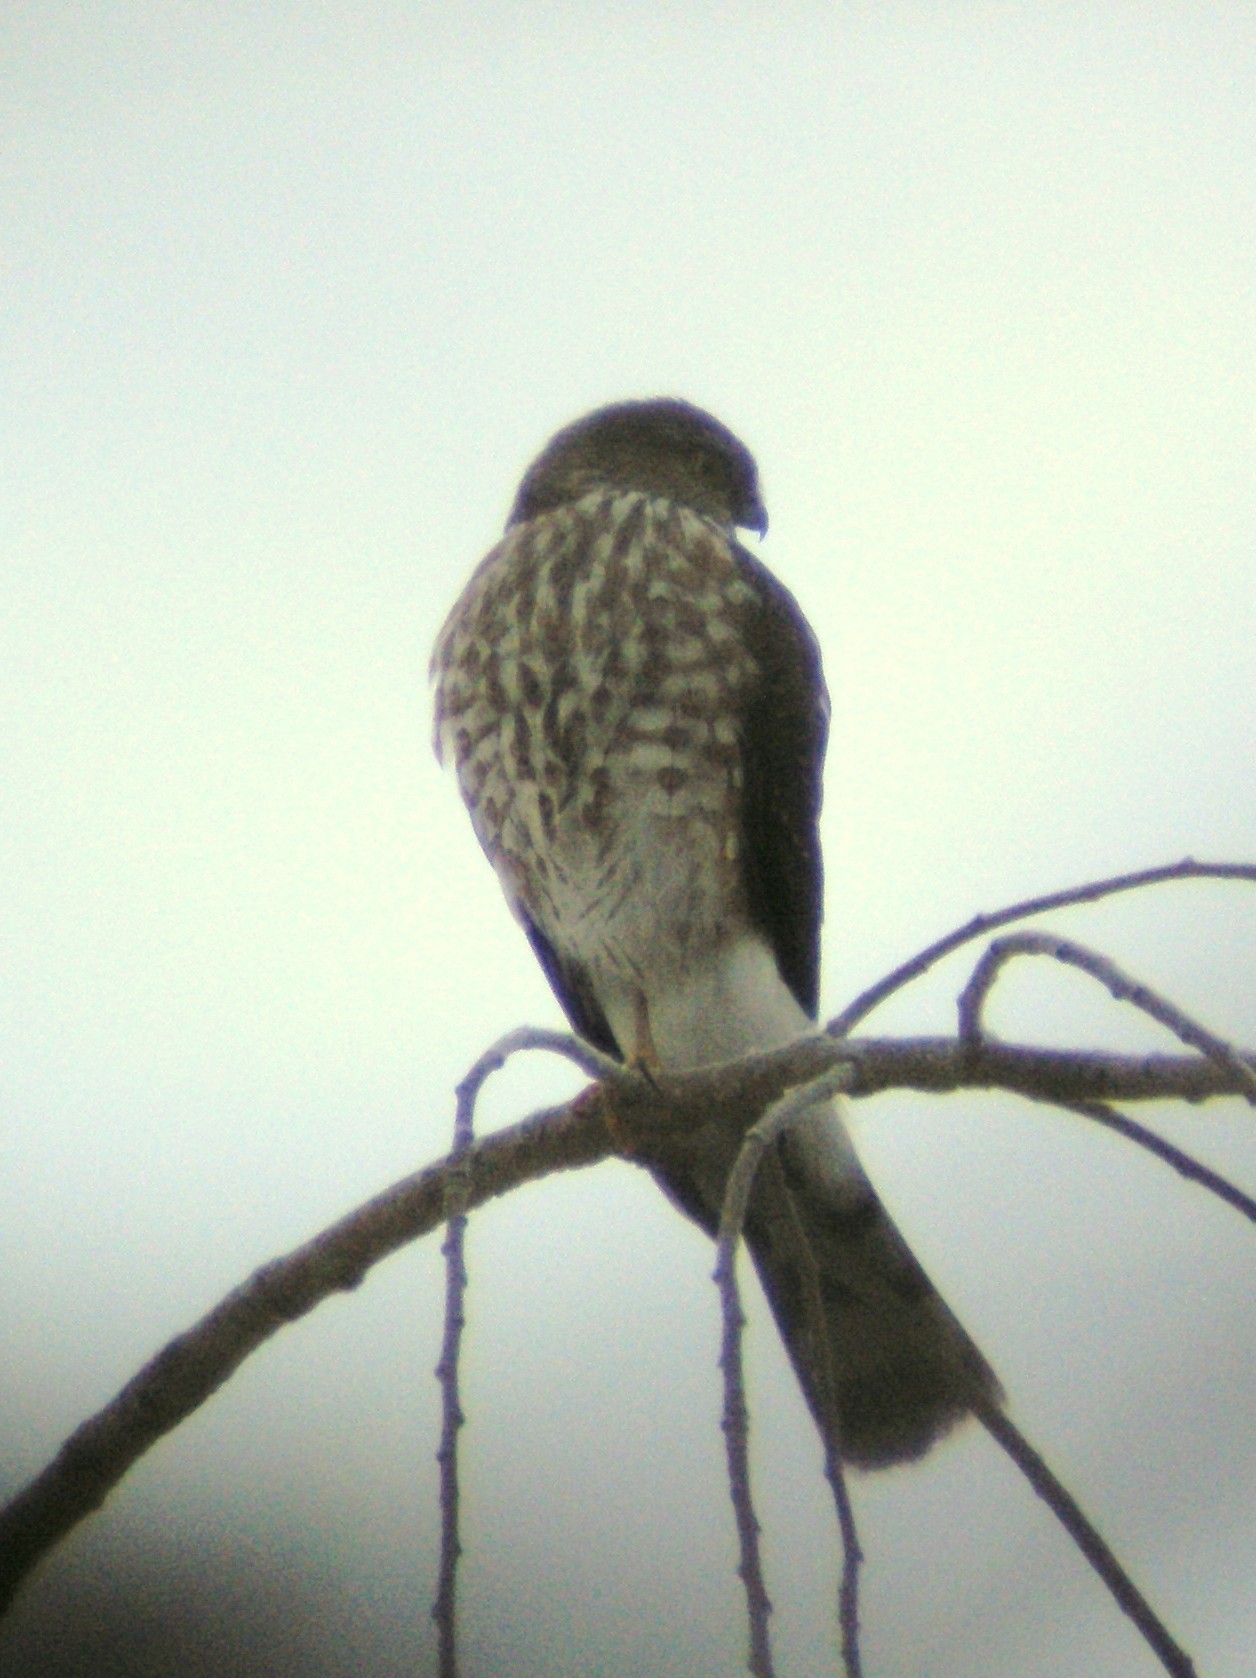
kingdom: Animalia
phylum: Chordata
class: Aves
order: Accipitriformes
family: Accipitridae
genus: Accipiter
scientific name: Accipiter striatus
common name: Sharp-shinned hawk
